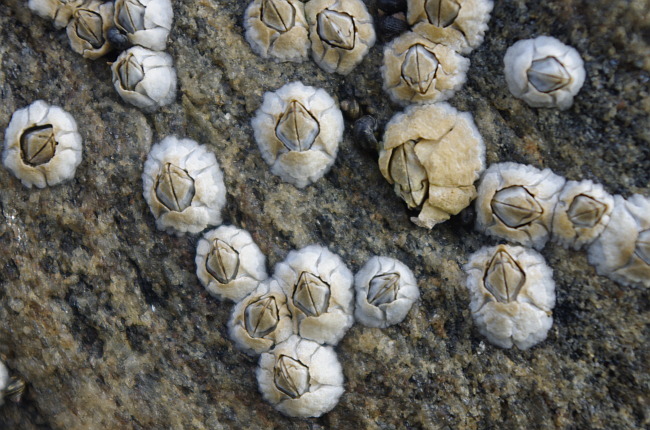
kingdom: Animalia
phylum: Arthropoda
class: Maxillopoda
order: Sessilia
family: Archaeobalanidae
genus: Semibalanus
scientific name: Semibalanus balanoides
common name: Acorn barnacle
